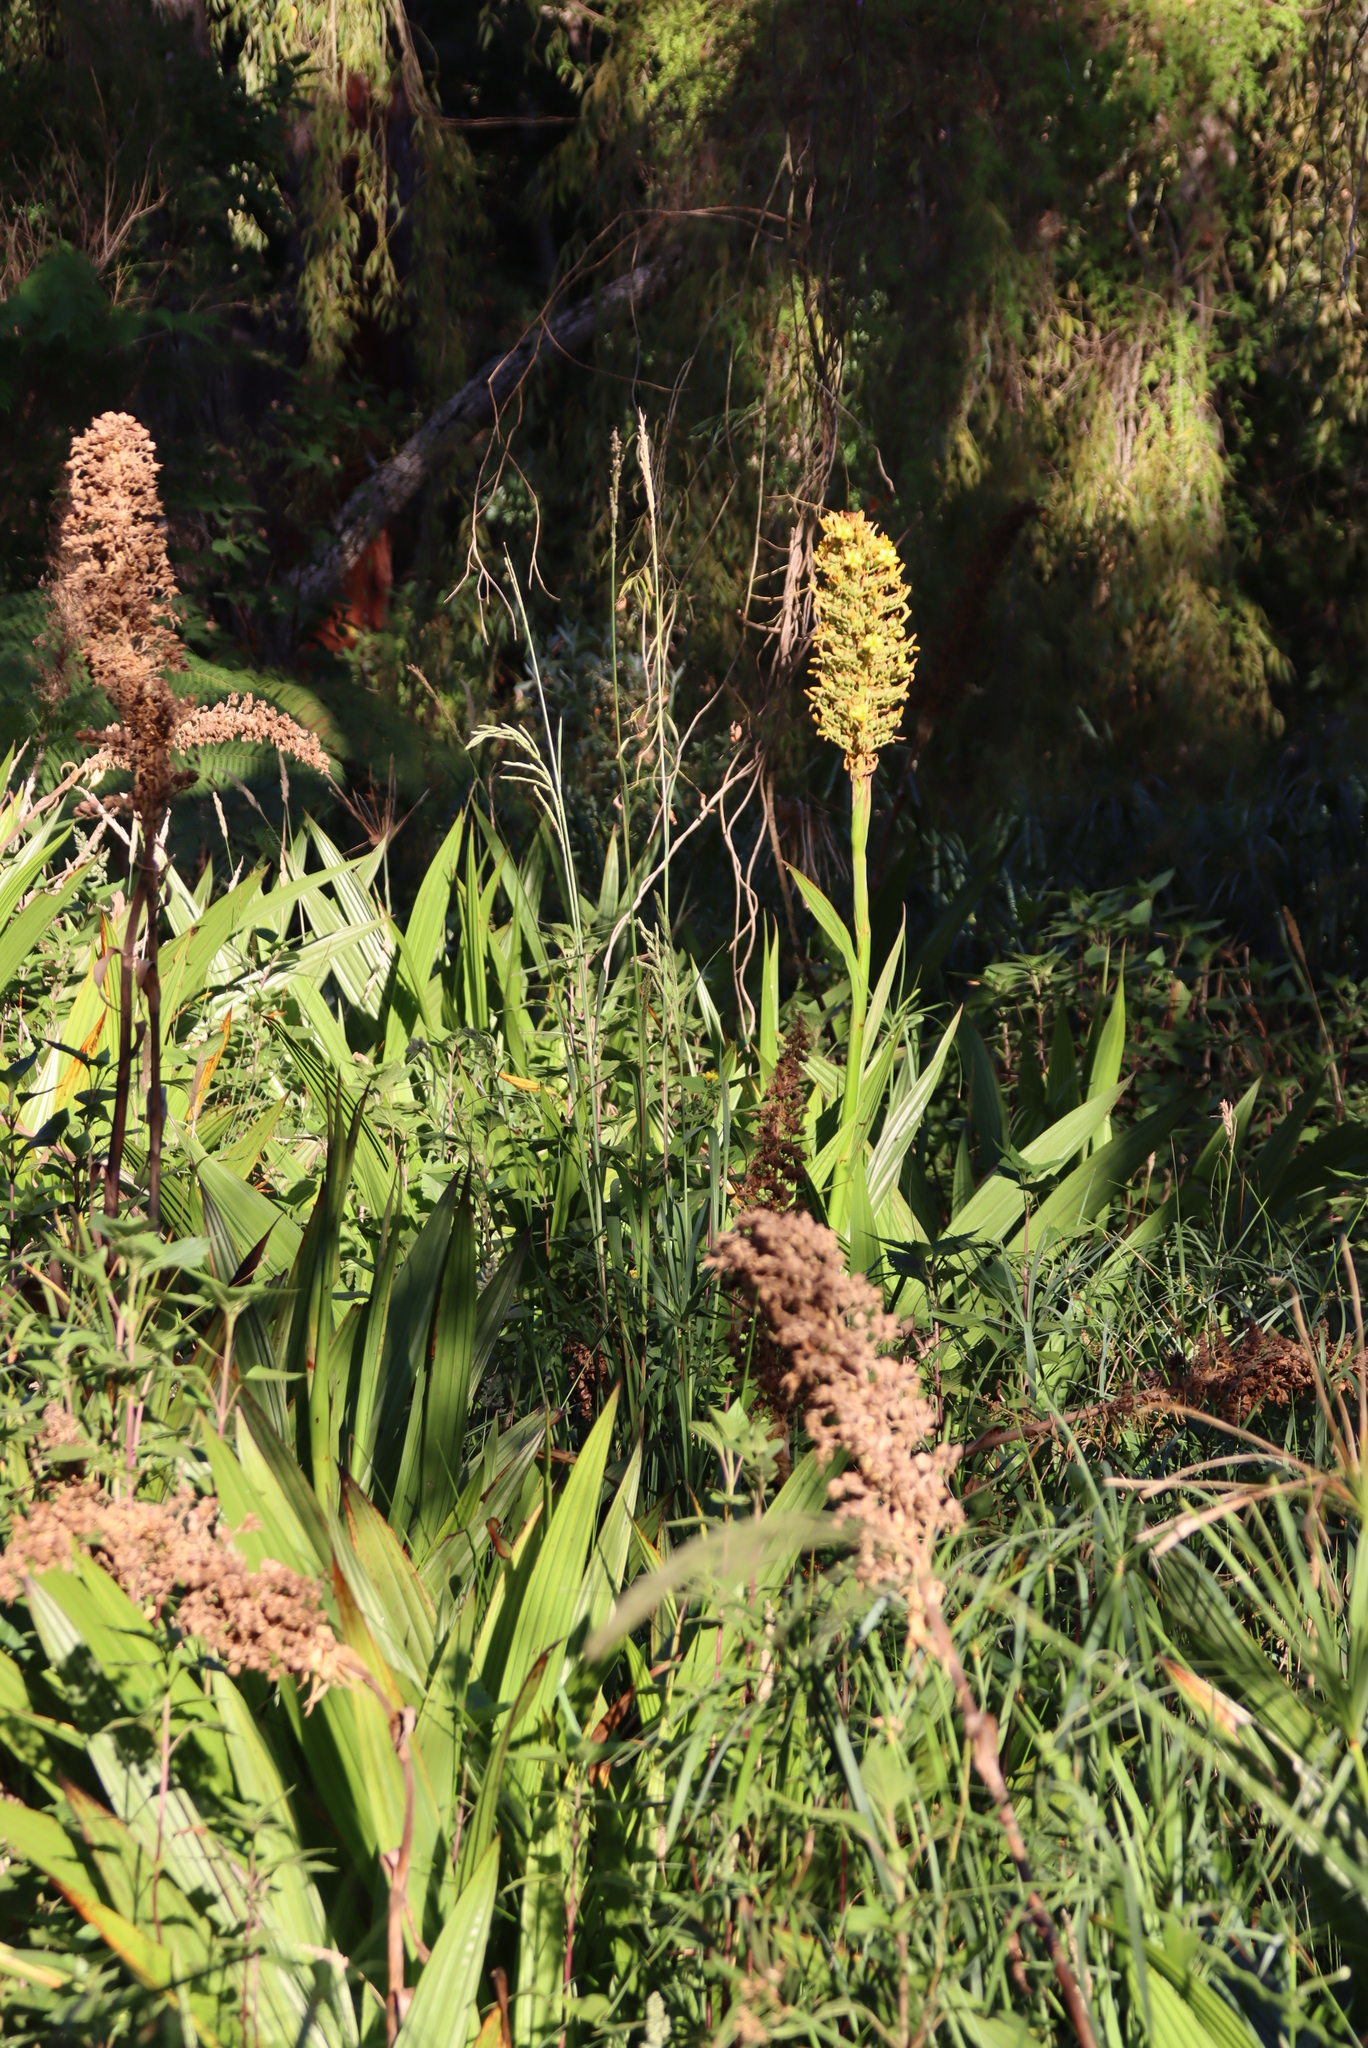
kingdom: Plantae
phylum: Tracheophyta
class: Liliopsida
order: Commelinales
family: Haemodoraceae
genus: Wachendorfia
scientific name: Wachendorfia thyrsiflora
